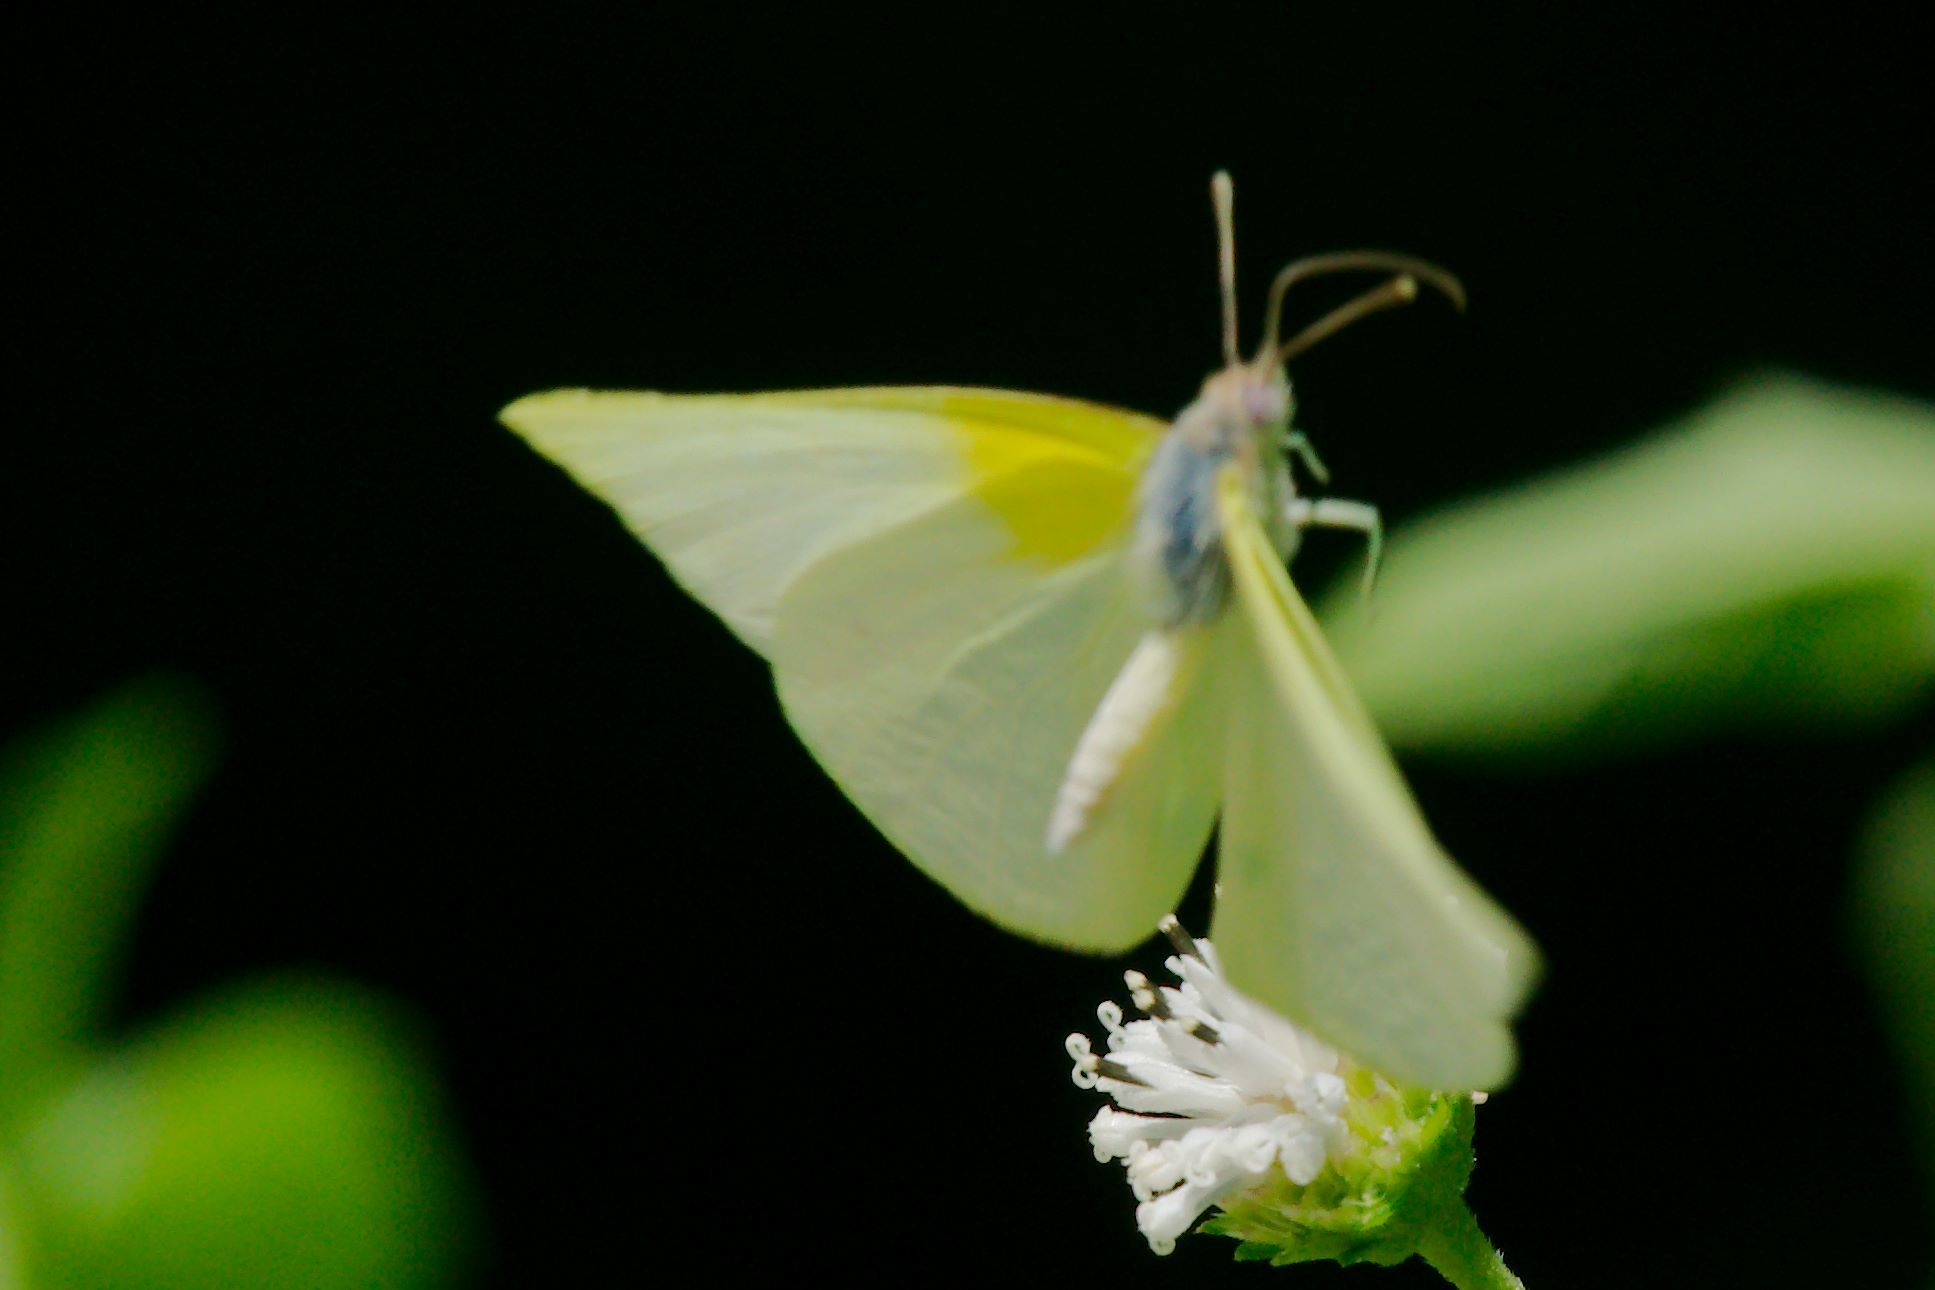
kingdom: Animalia
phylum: Arthropoda
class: Insecta
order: Lepidoptera
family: Pieridae
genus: Kricogonia
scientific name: Kricogonia lyside
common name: Guayacan sulphur,
